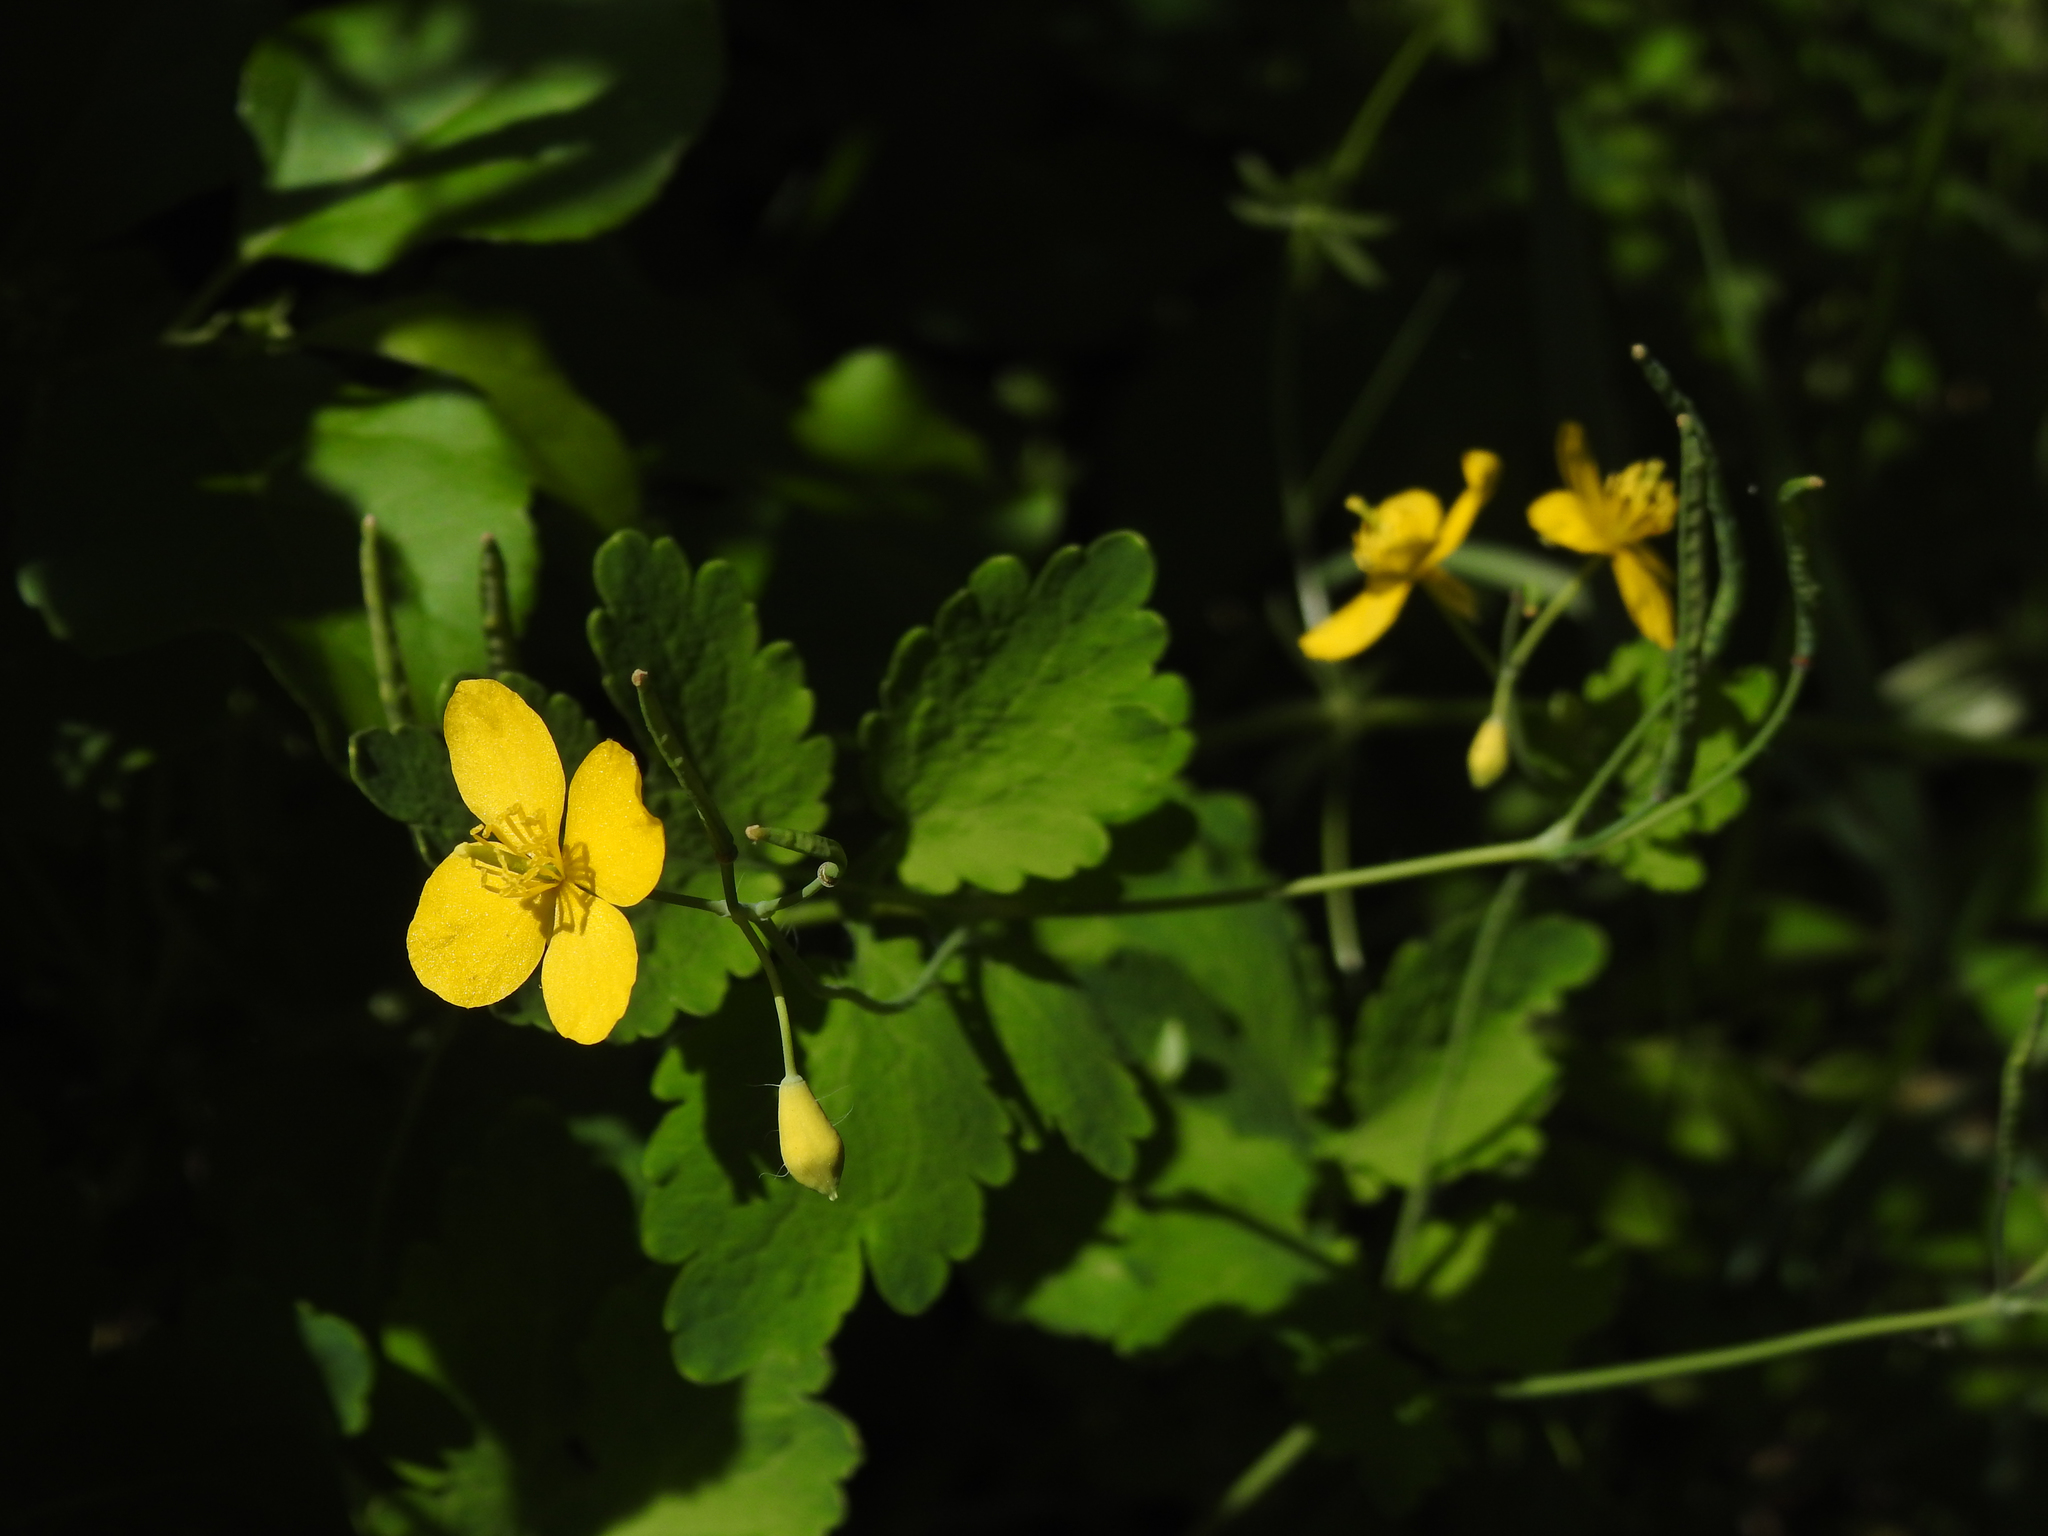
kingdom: Plantae
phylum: Tracheophyta
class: Magnoliopsida
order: Ranunculales
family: Papaveraceae
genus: Chelidonium
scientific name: Chelidonium majus
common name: Greater celandine
